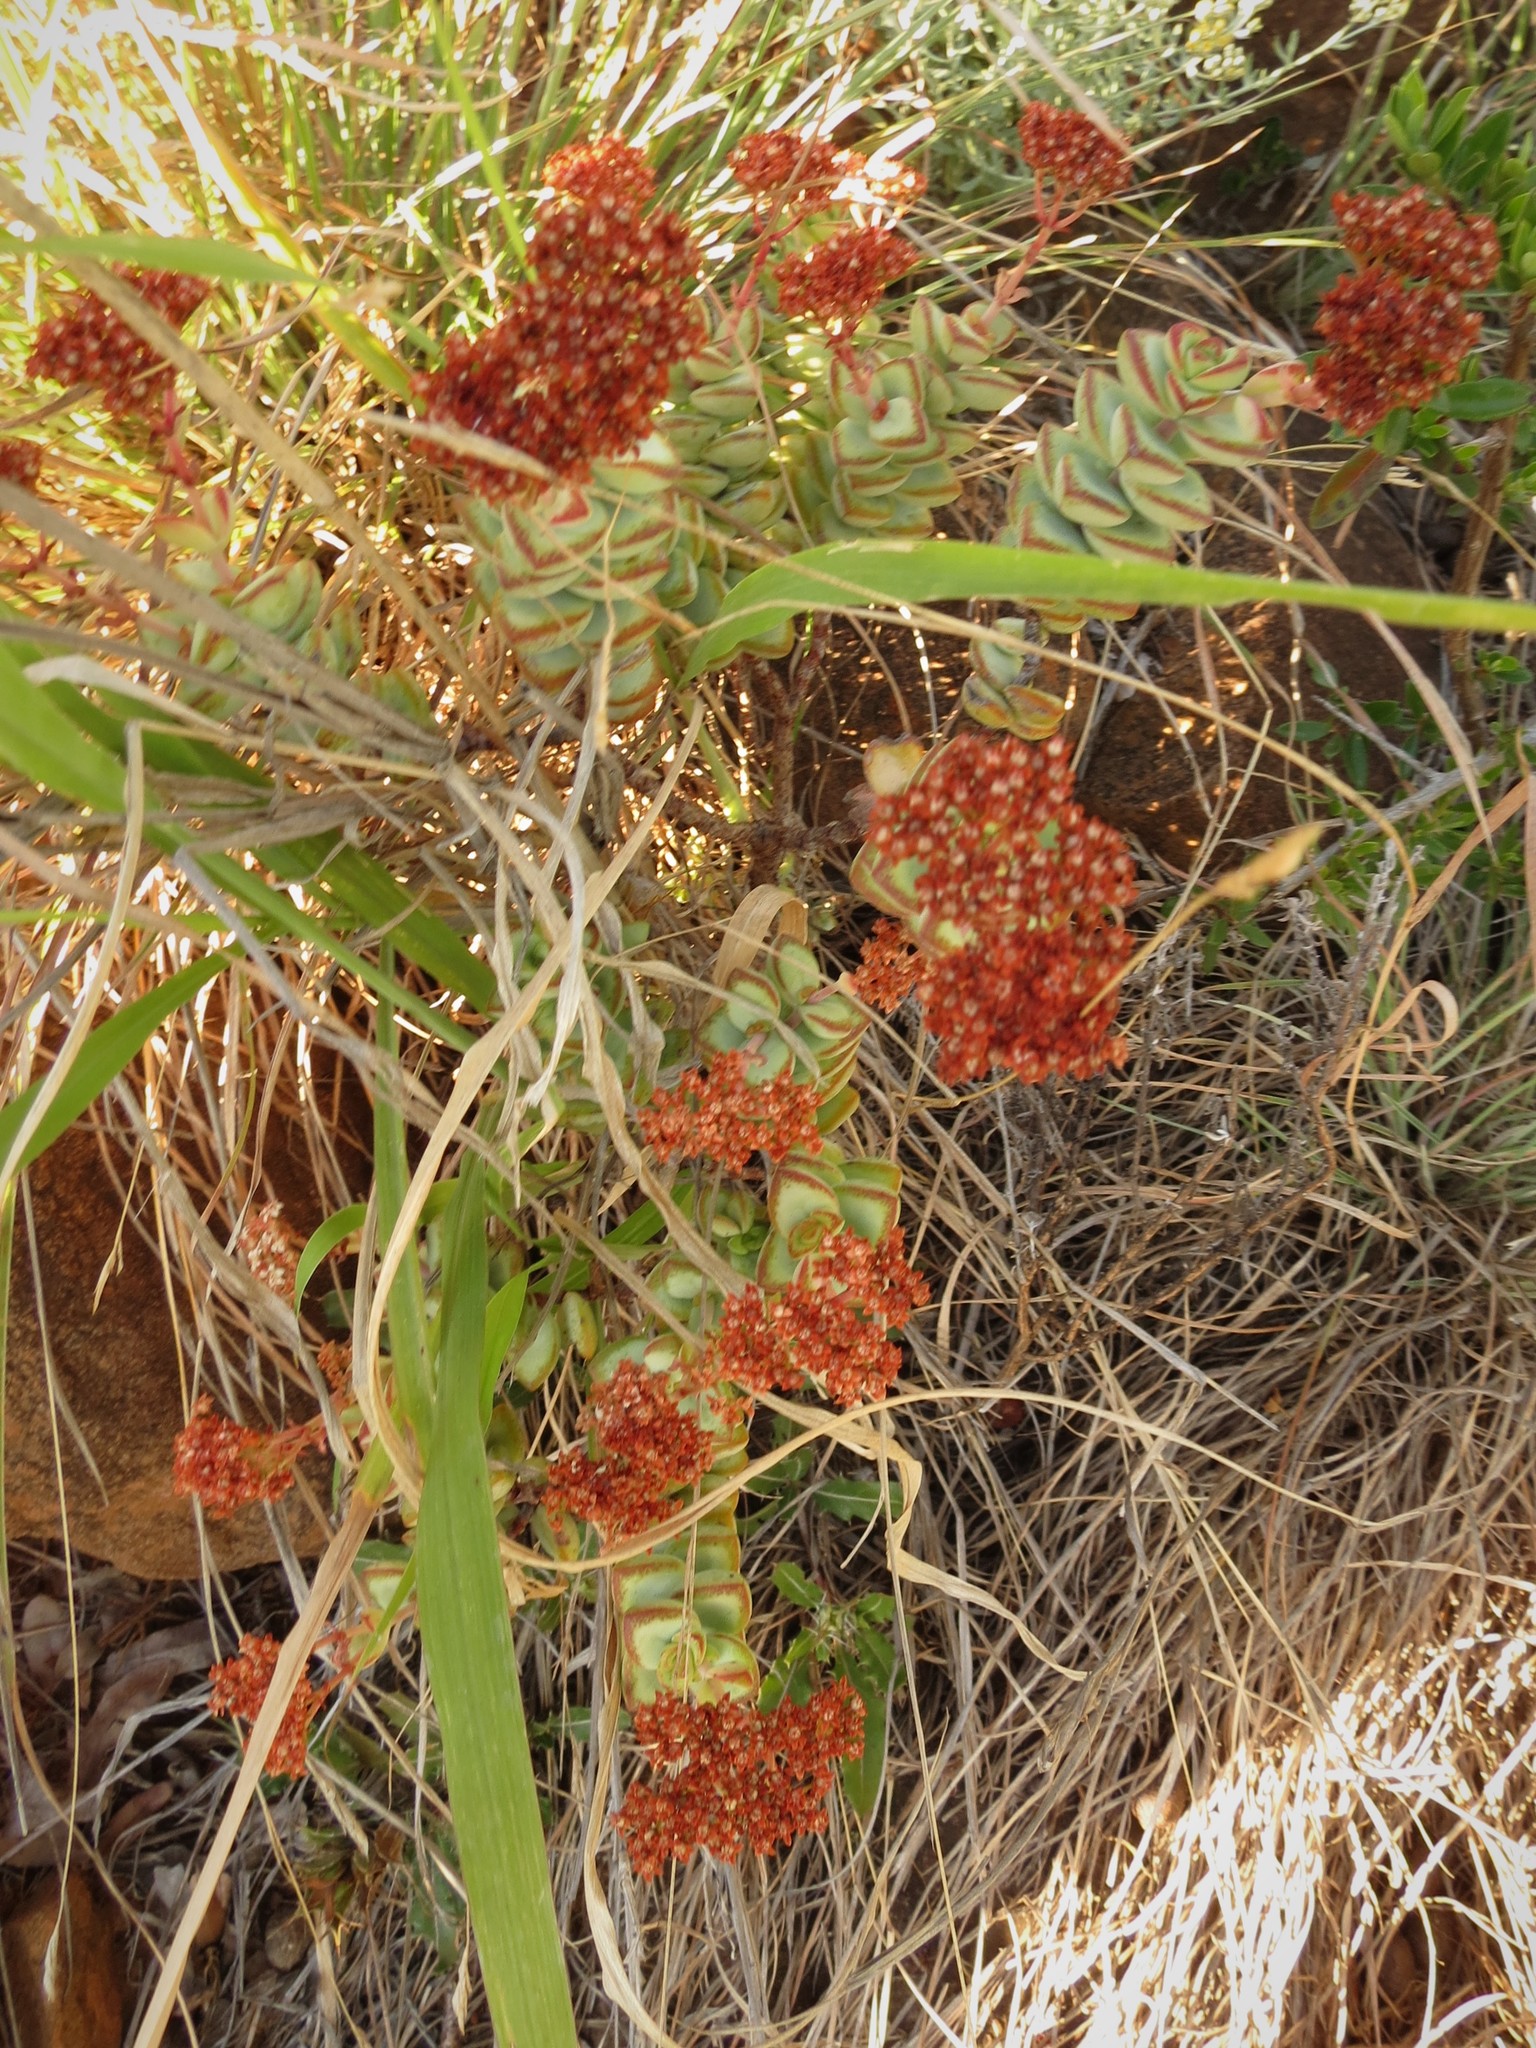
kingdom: Plantae
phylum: Tracheophyta
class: Magnoliopsida
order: Saxifragales
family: Crassulaceae
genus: Crassula
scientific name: Crassula rupestris
